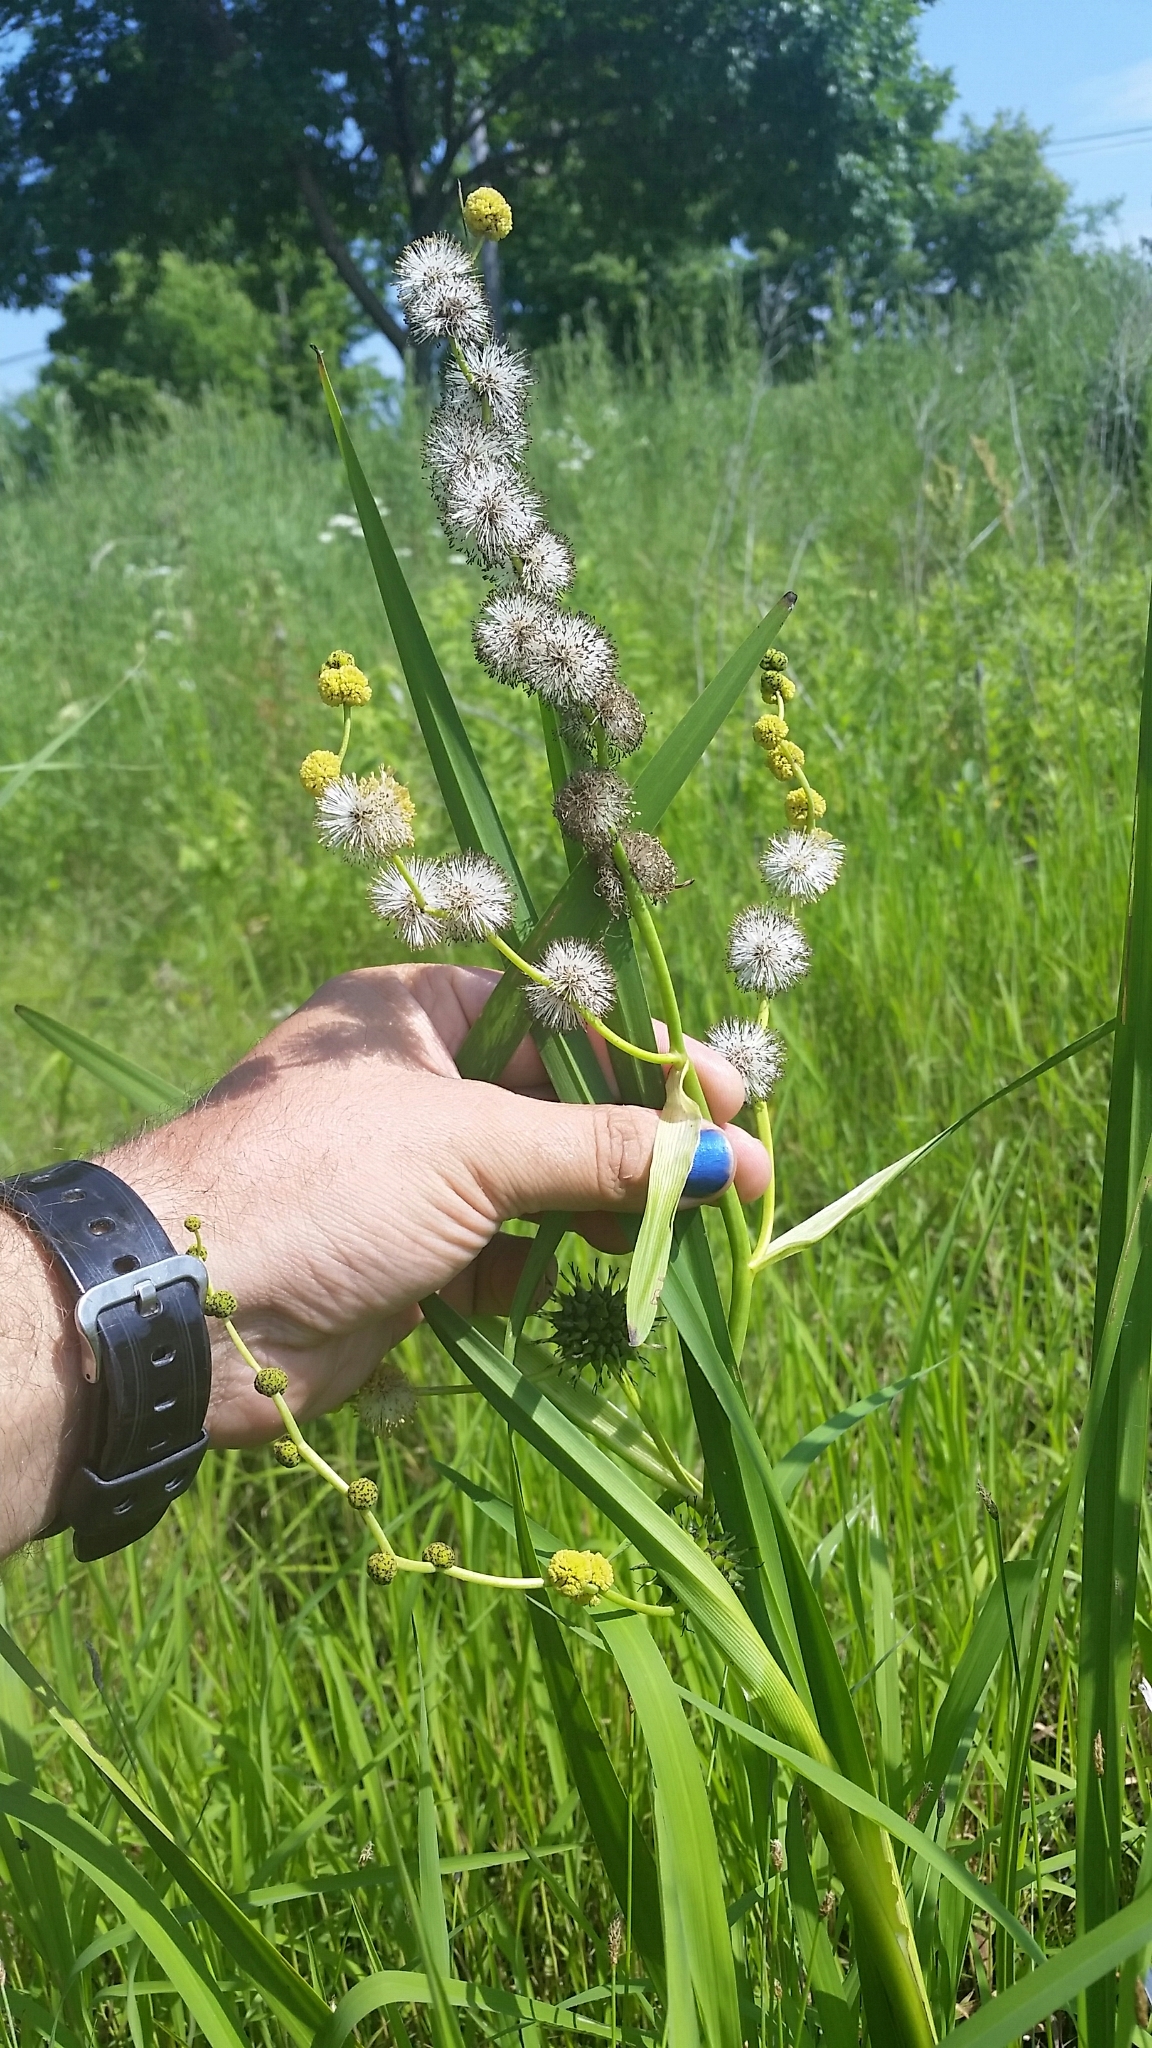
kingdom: Plantae
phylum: Tracheophyta
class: Liliopsida
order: Poales
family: Typhaceae
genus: Sparganium
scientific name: Sparganium eurycarpum
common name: Broad-fruited burreed
